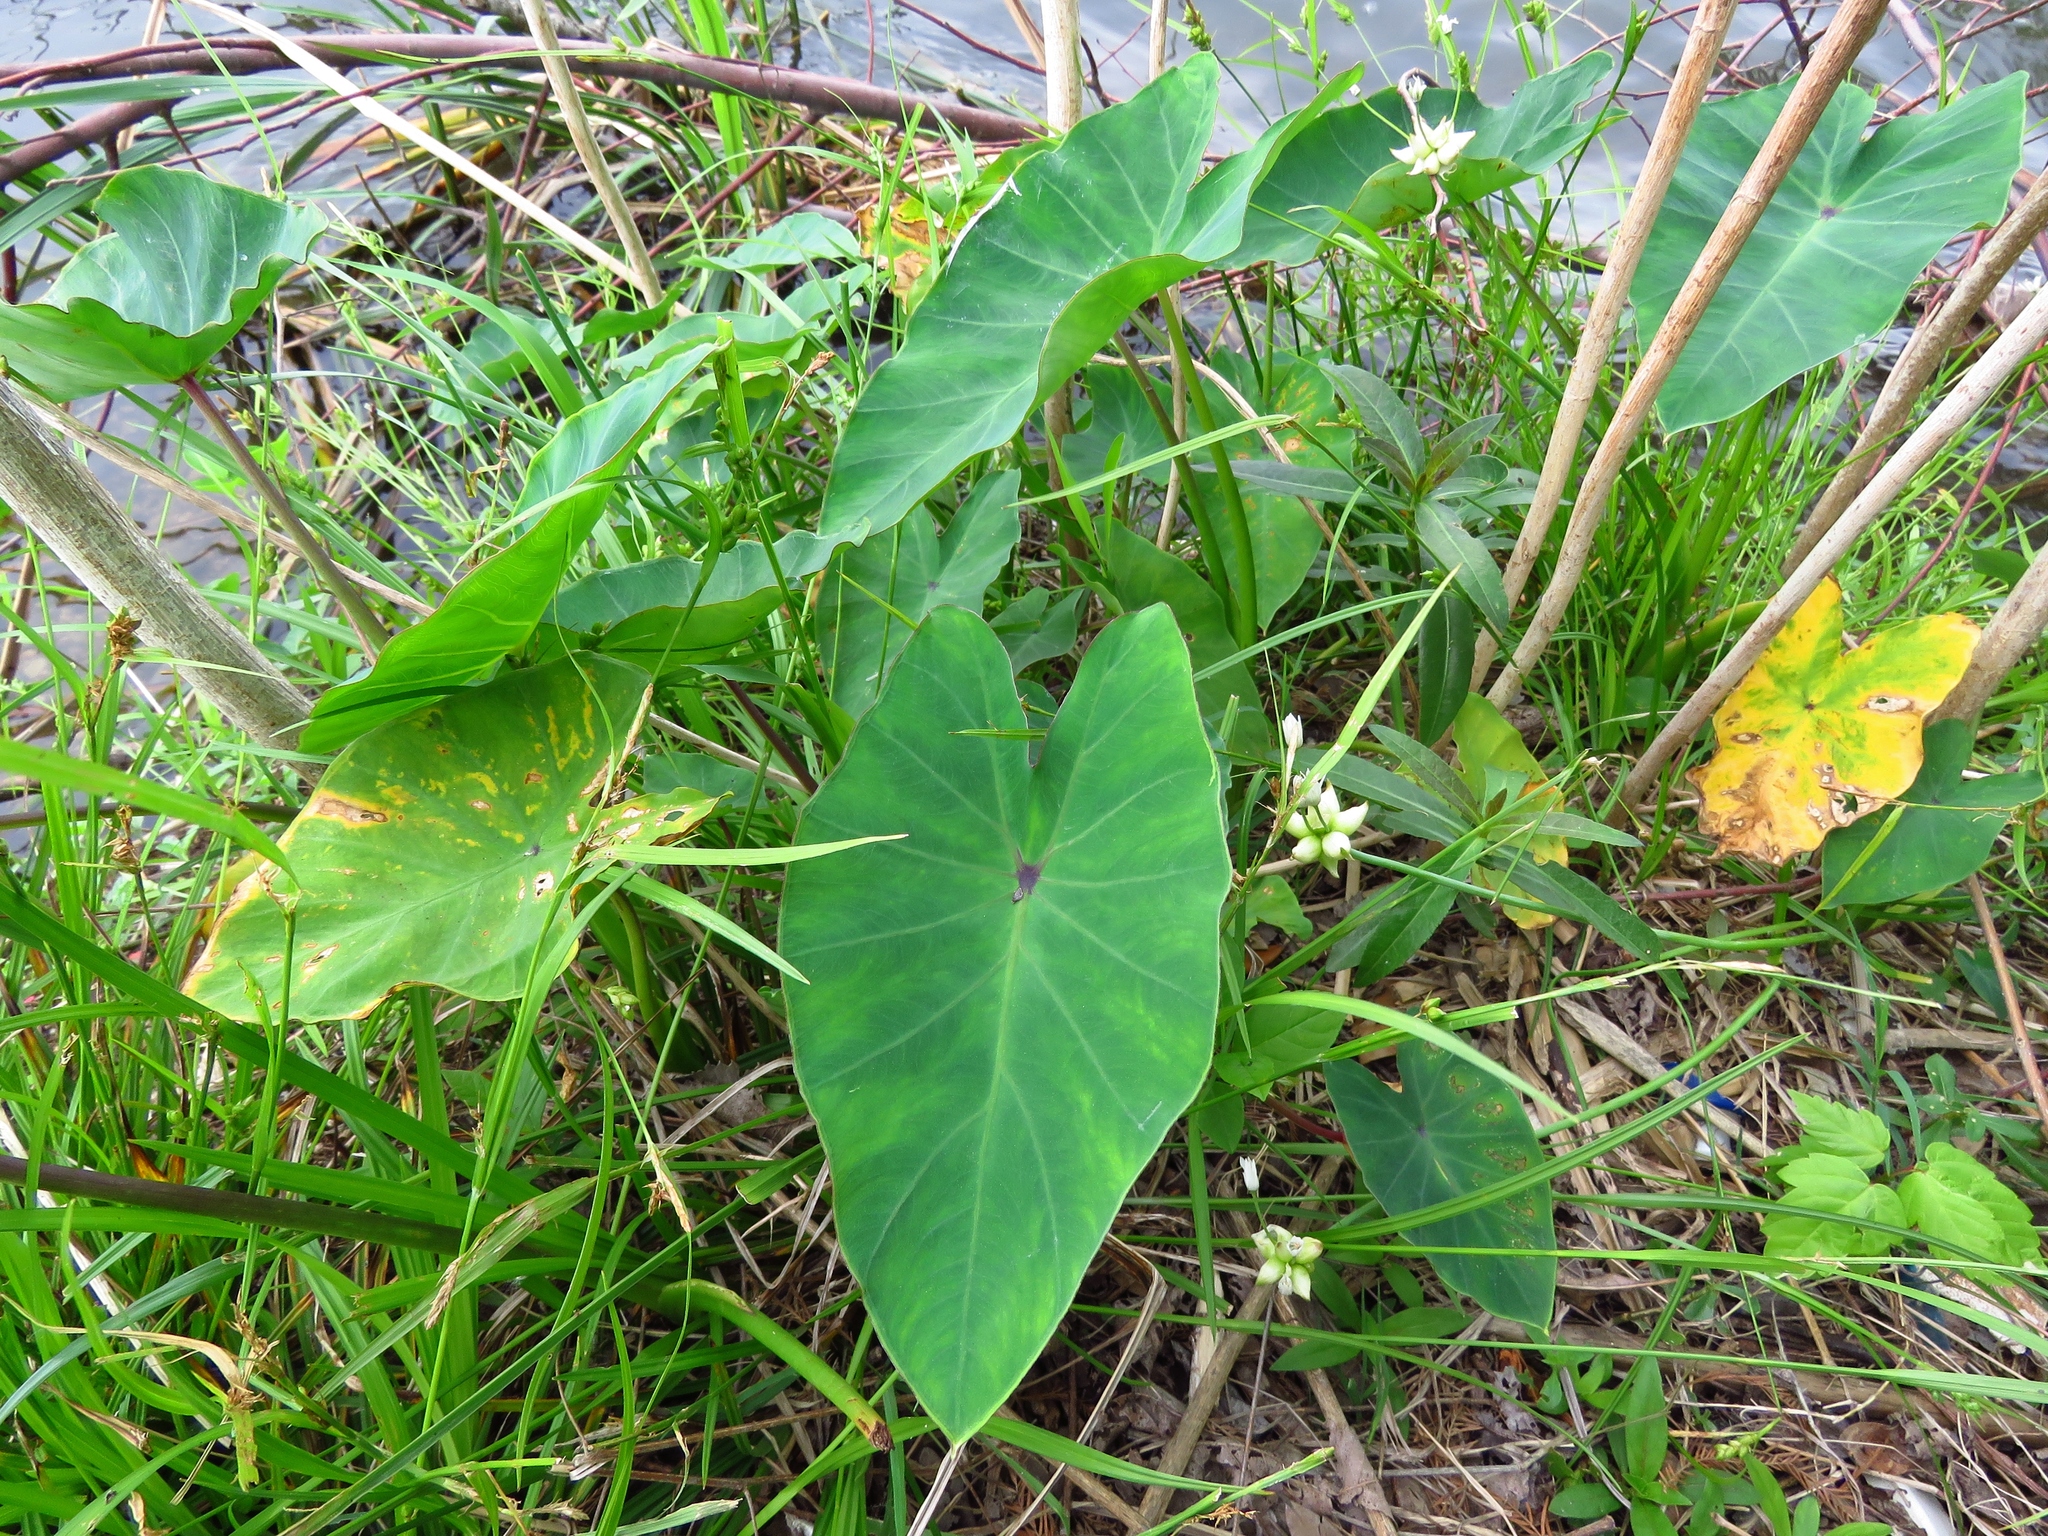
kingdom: Plantae
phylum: Tracheophyta
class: Liliopsida
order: Alismatales
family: Araceae
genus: Colocasia
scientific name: Colocasia esculenta
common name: Taro
